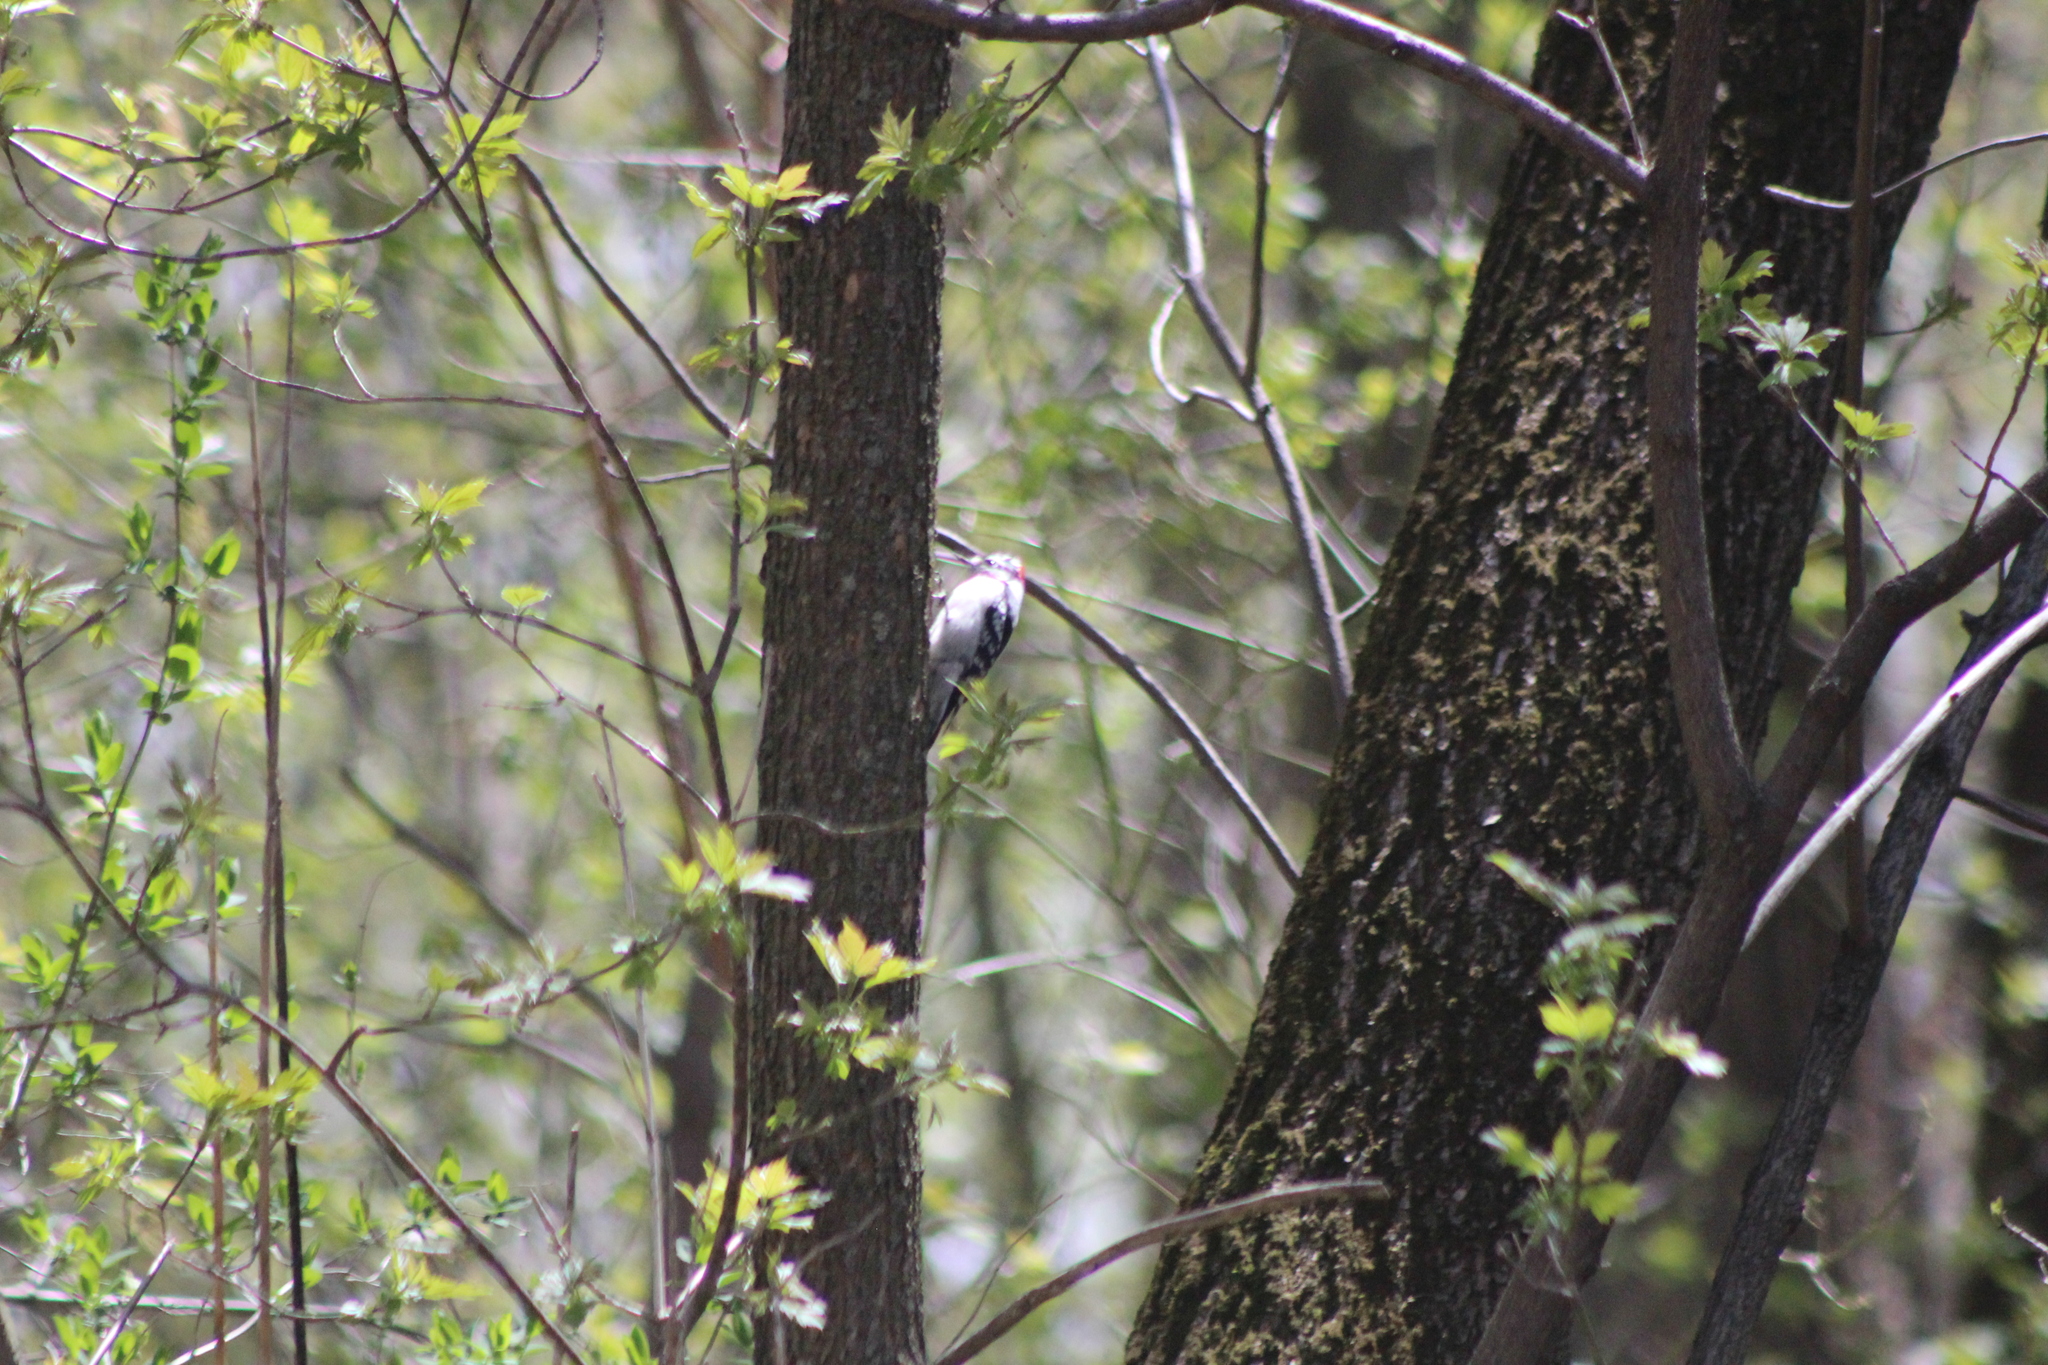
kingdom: Animalia
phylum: Chordata
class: Aves
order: Piciformes
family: Picidae
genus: Dryobates
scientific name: Dryobates pubescens
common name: Downy woodpecker
